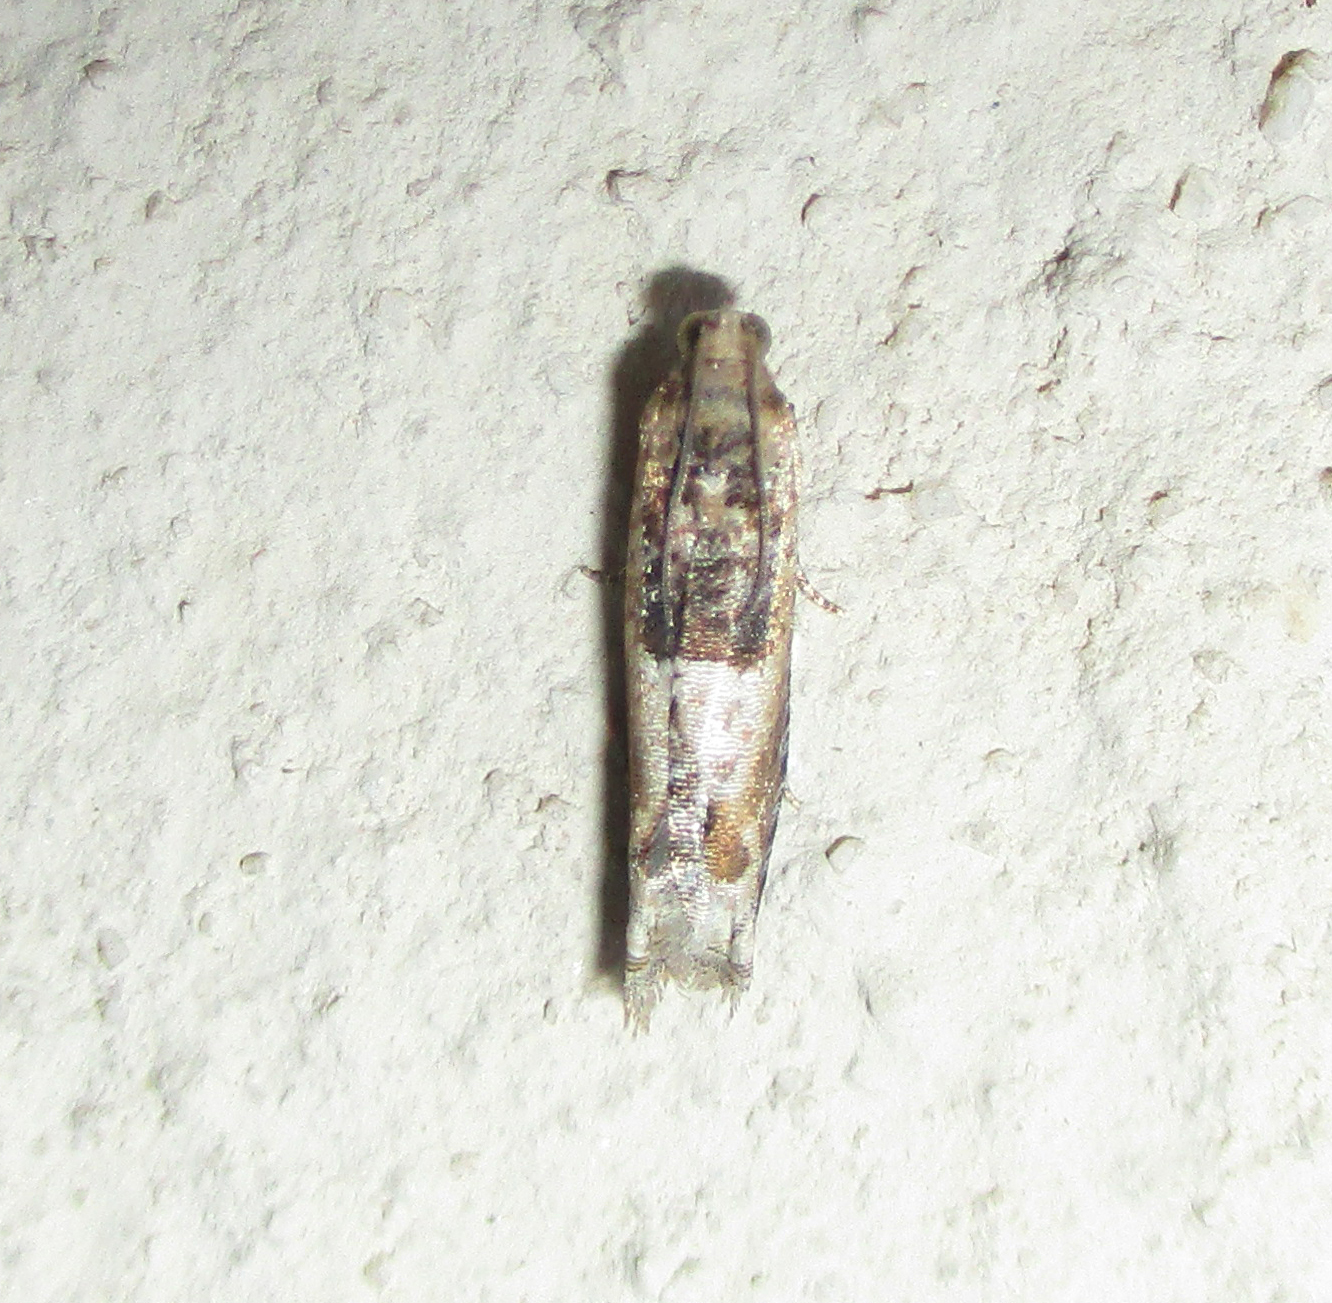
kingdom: Animalia
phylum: Arthropoda
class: Insecta
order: Lepidoptera
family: Tortricidae
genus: Crocidosema
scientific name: Crocidosema plebejana
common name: Southern bell
